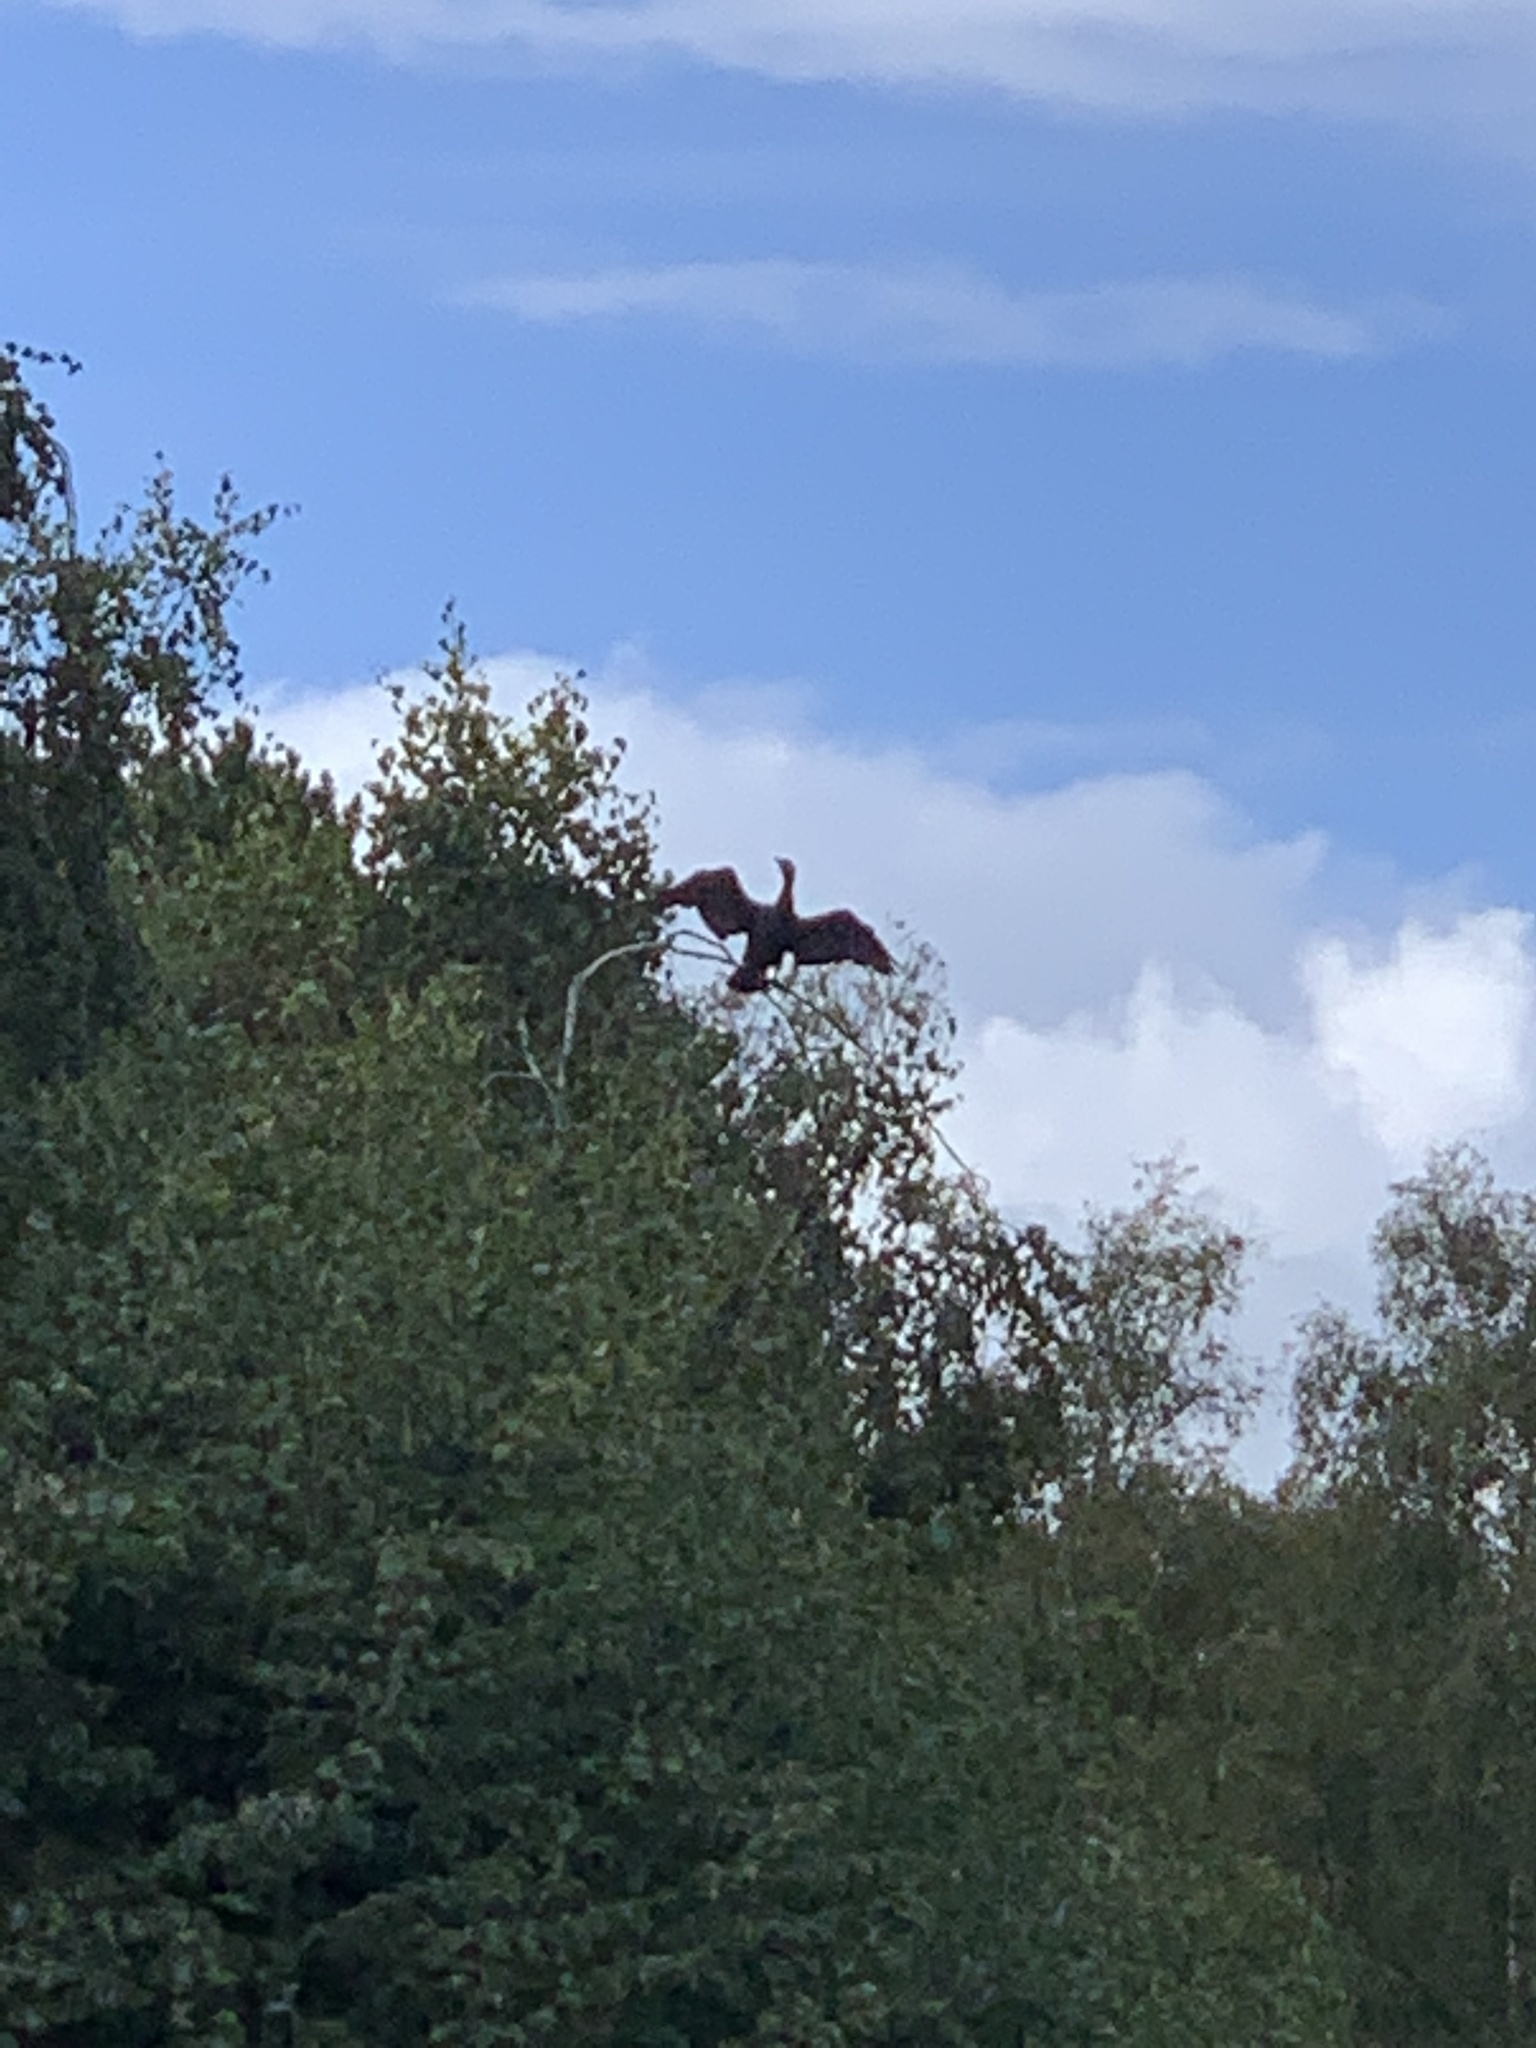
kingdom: Animalia
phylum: Chordata
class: Aves
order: Suliformes
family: Phalacrocoracidae
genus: Phalacrocorax
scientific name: Phalacrocorax carbo
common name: Great cormorant
